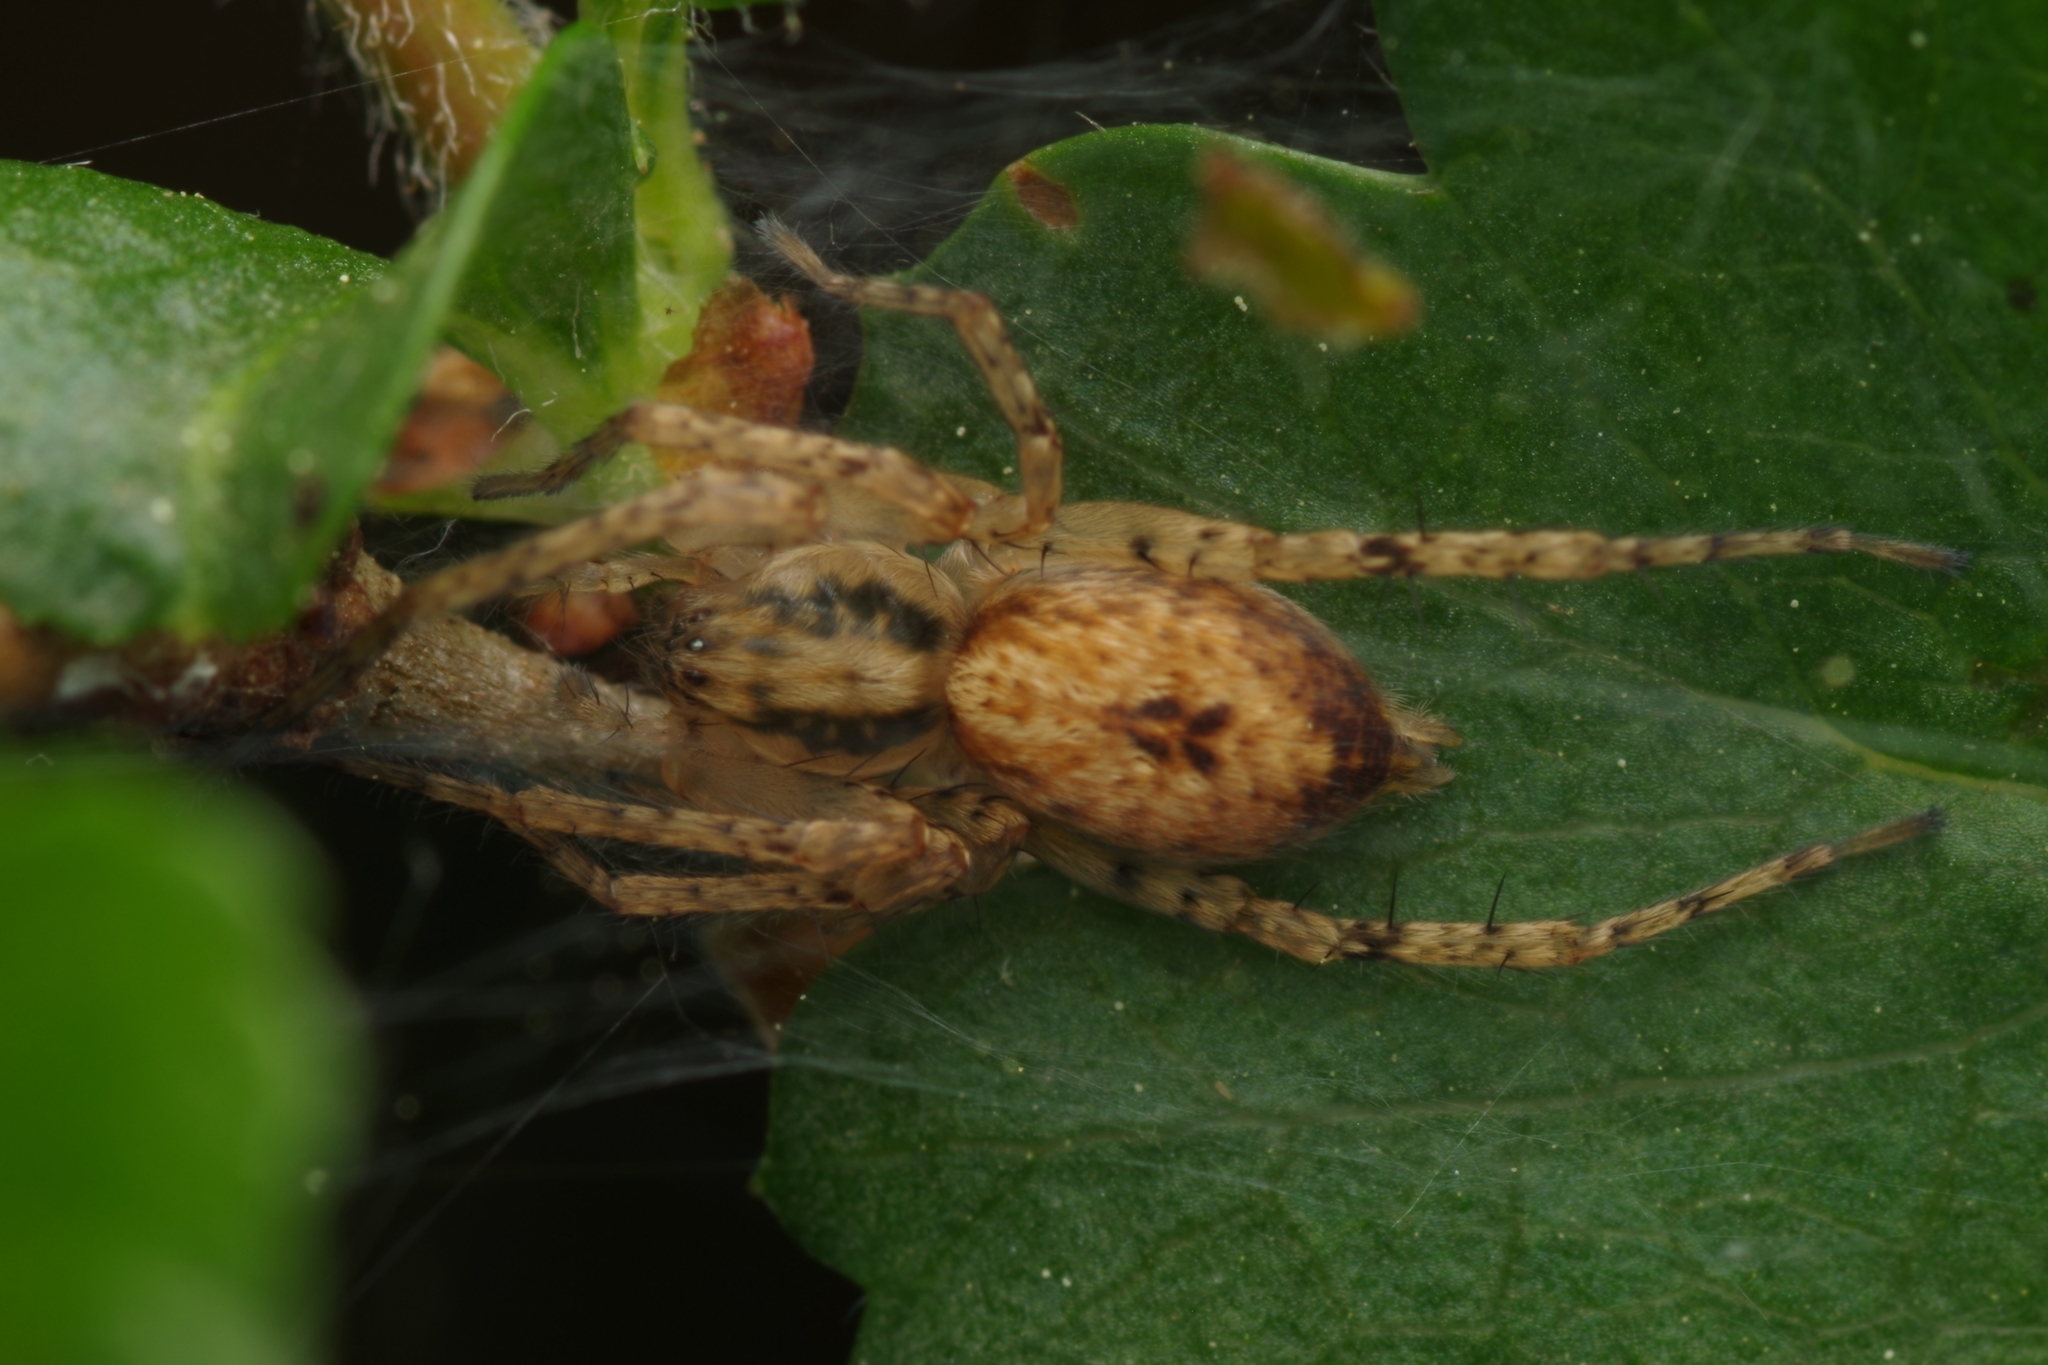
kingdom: Animalia
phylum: Arthropoda
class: Arachnida
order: Araneae
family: Anyphaenidae
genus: Anyphaena
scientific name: Anyphaena accentuata
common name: Buzzing spider
